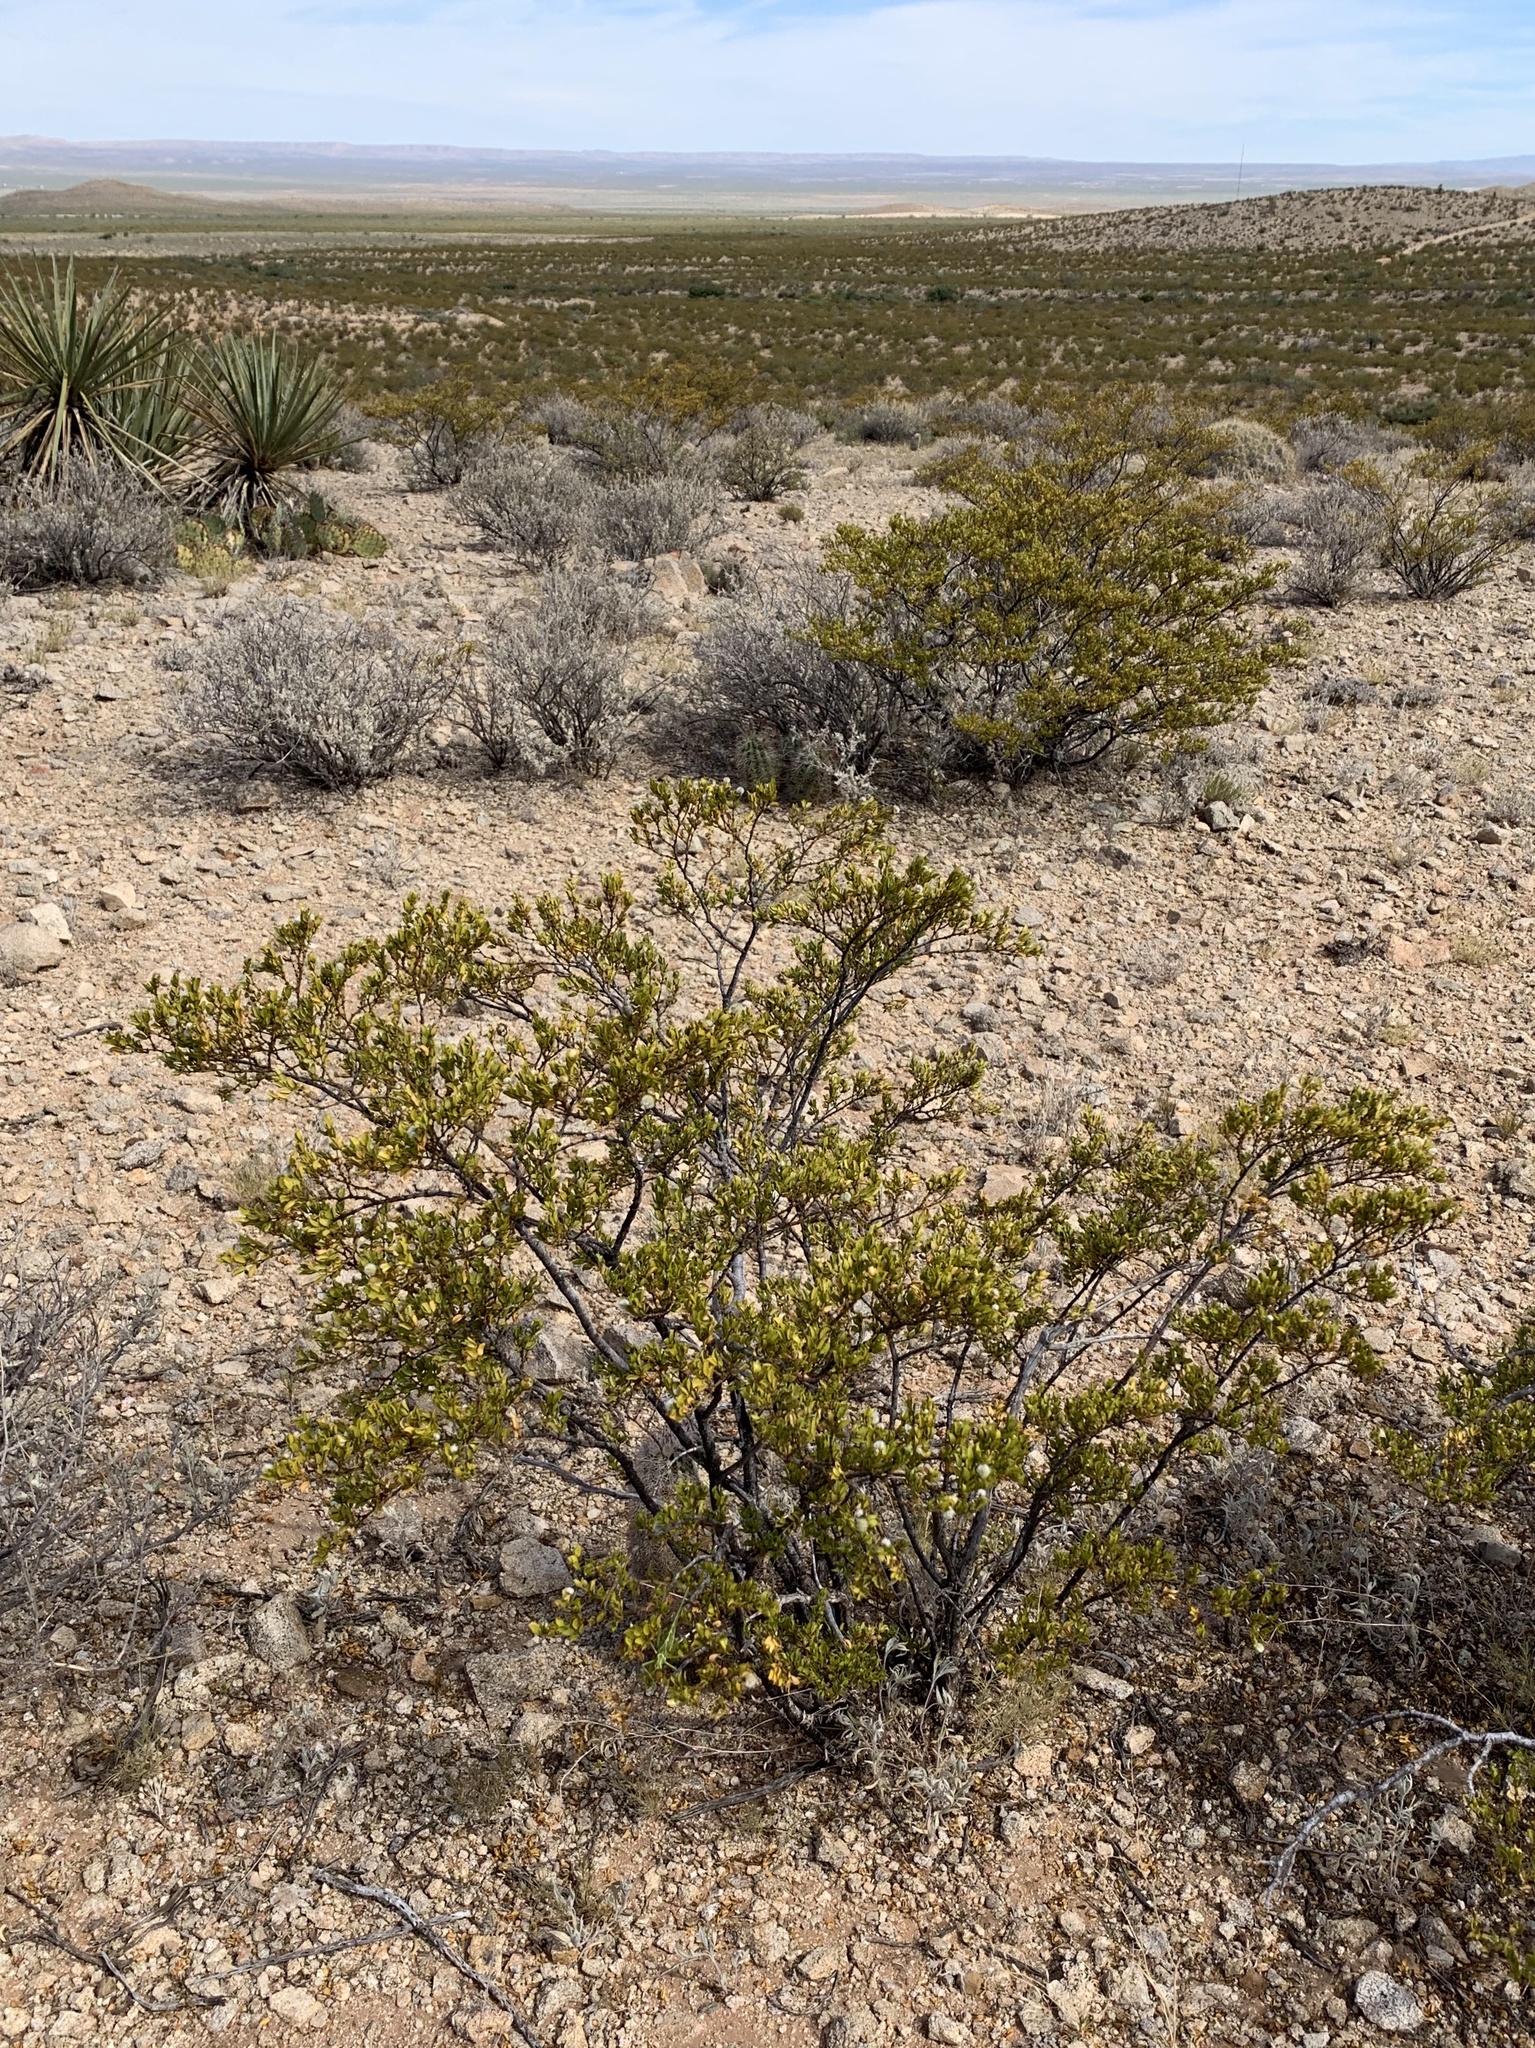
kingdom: Plantae
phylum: Tracheophyta
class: Magnoliopsida
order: Zygophyllales
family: Zygophyllaceae
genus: Larrea
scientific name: Larrea tridentata
